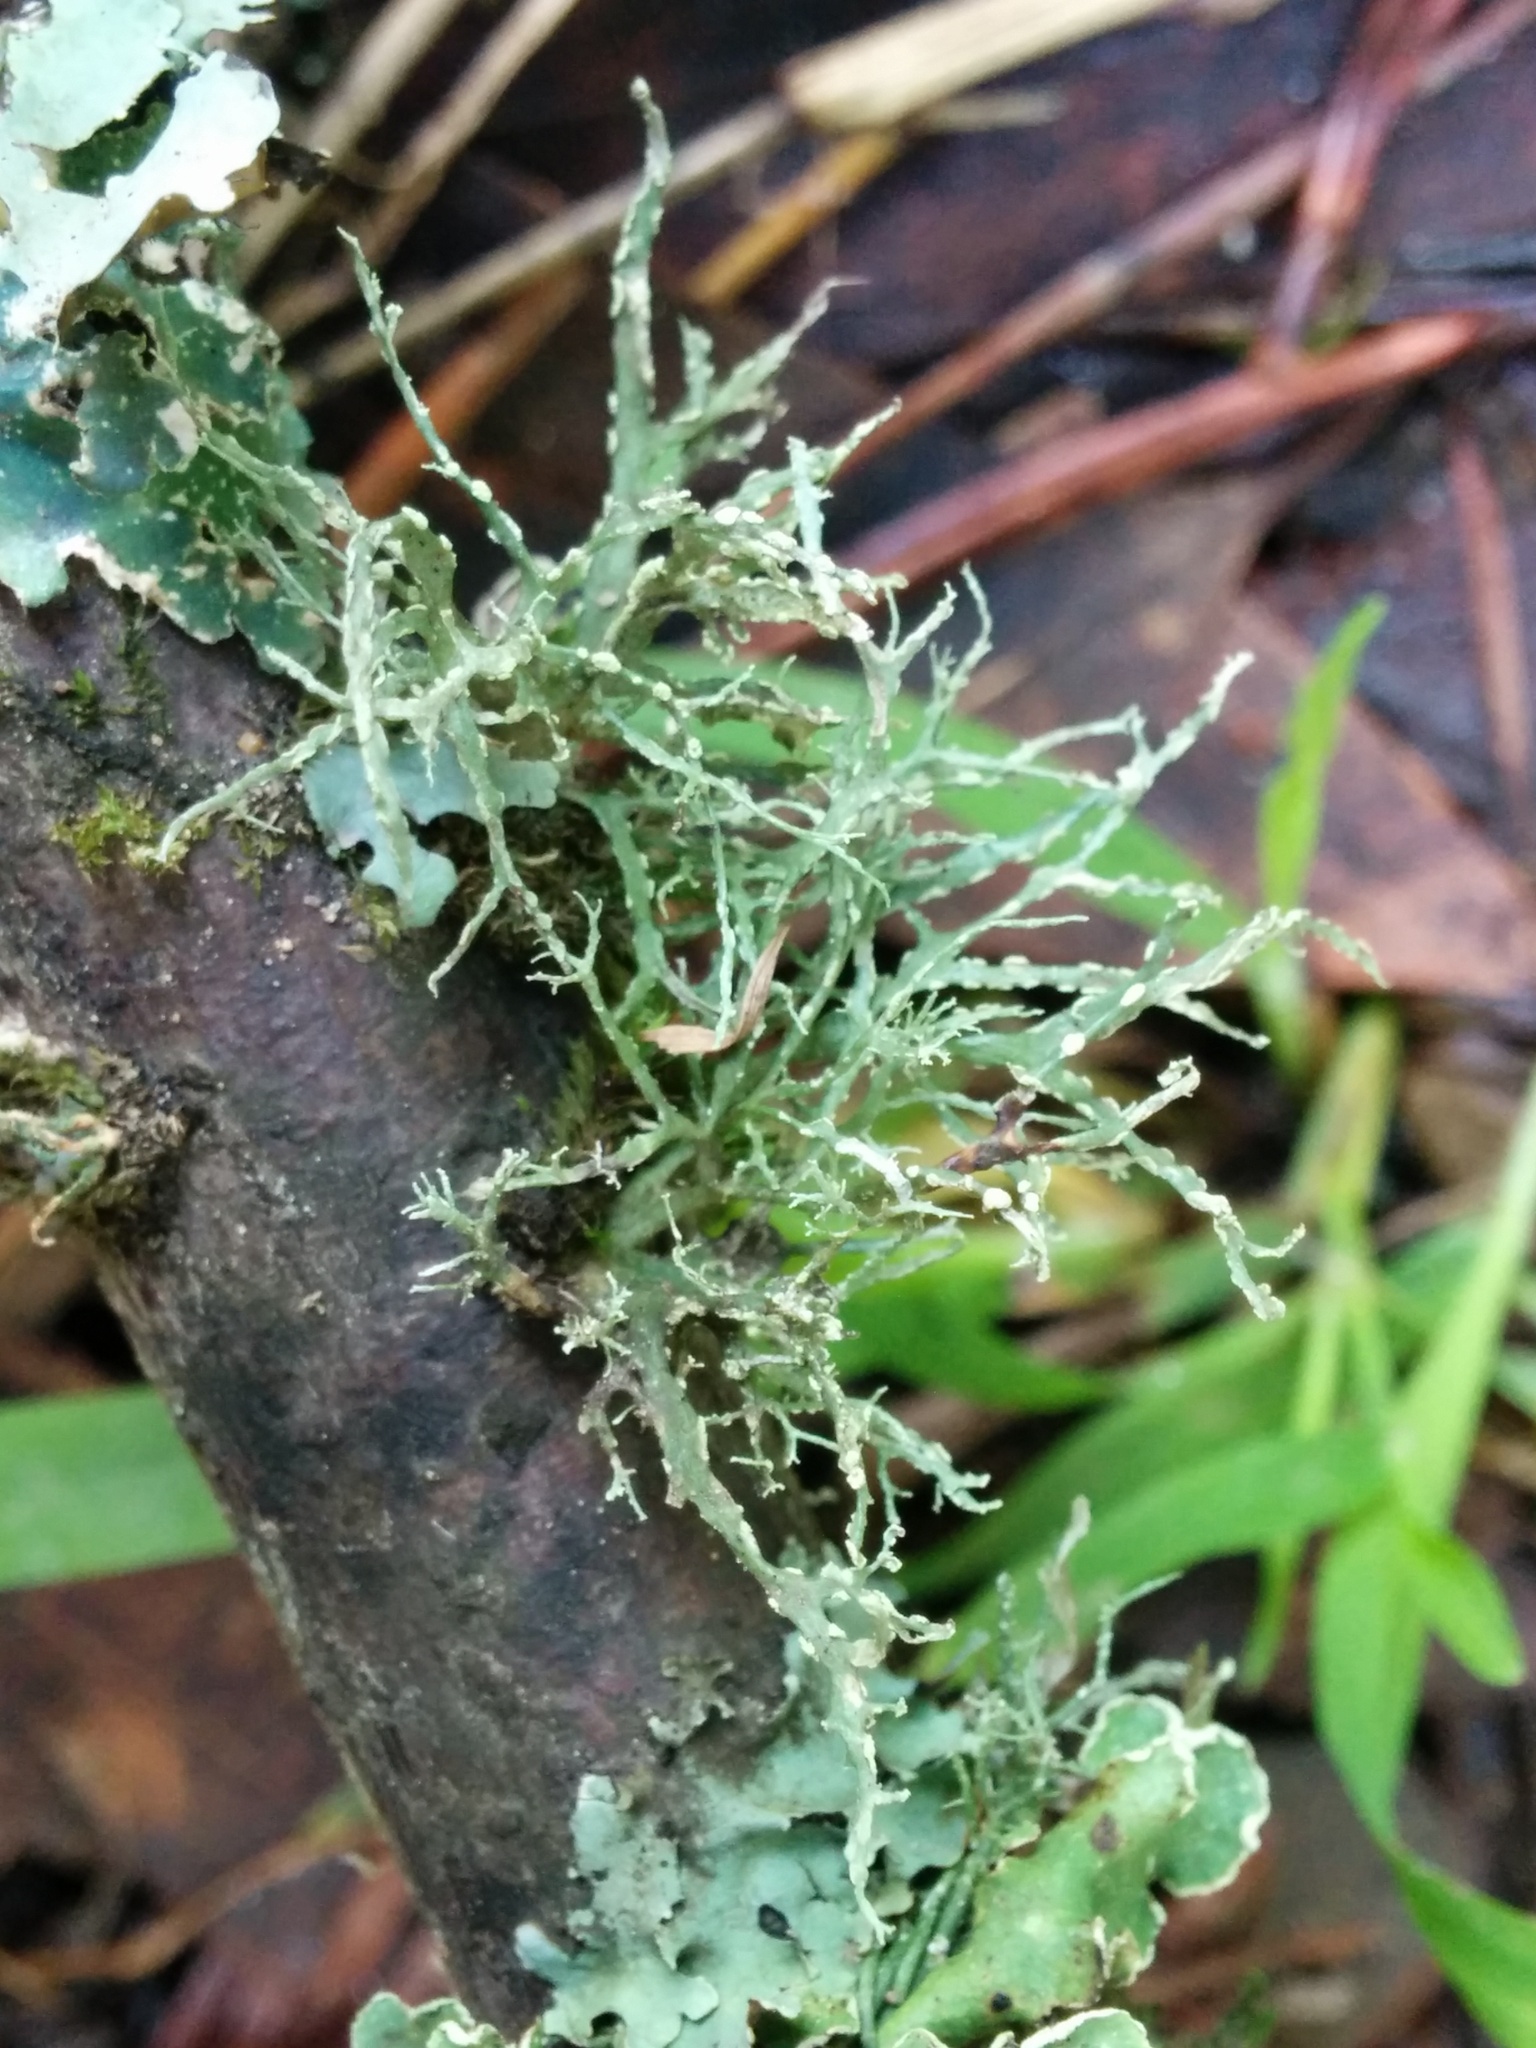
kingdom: Fungi
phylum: Ascomycota
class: Lecanoromycetes
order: Lecanorales
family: Ramalinaceae
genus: Ramalina
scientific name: Ramalina farinacea
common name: Farinose cartilage lichen
